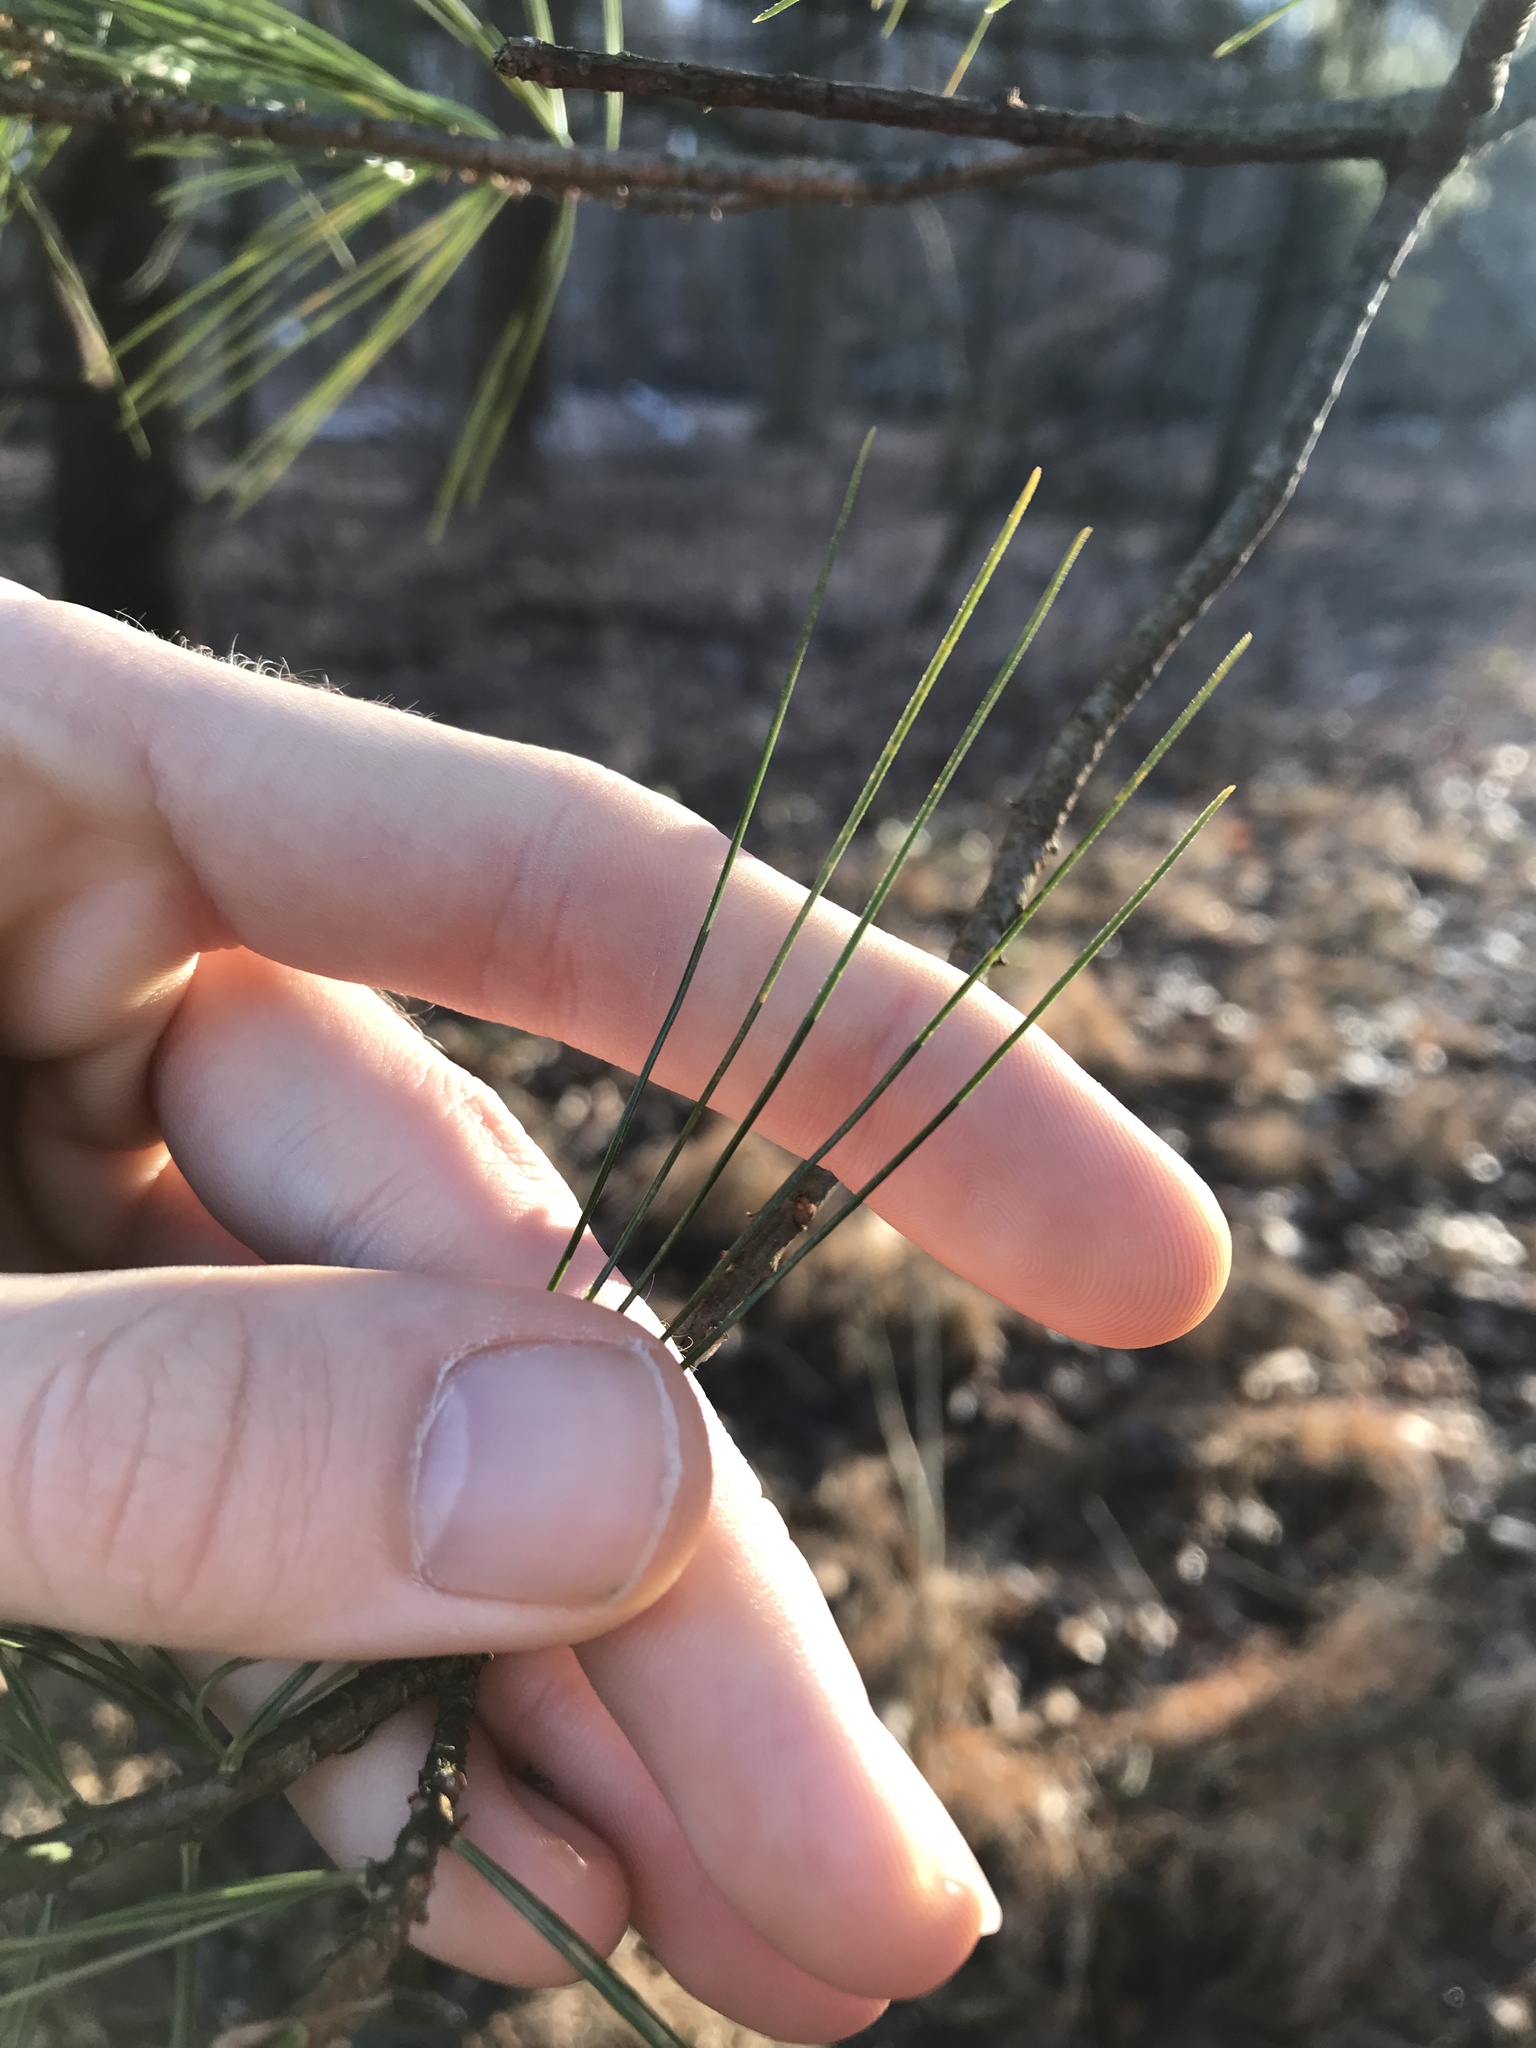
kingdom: Plantae
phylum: Tracheophyta
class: Pinopsida
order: Pinales
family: Pinaceae
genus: Pinus
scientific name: Pinus strobus
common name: Weymouth pine
